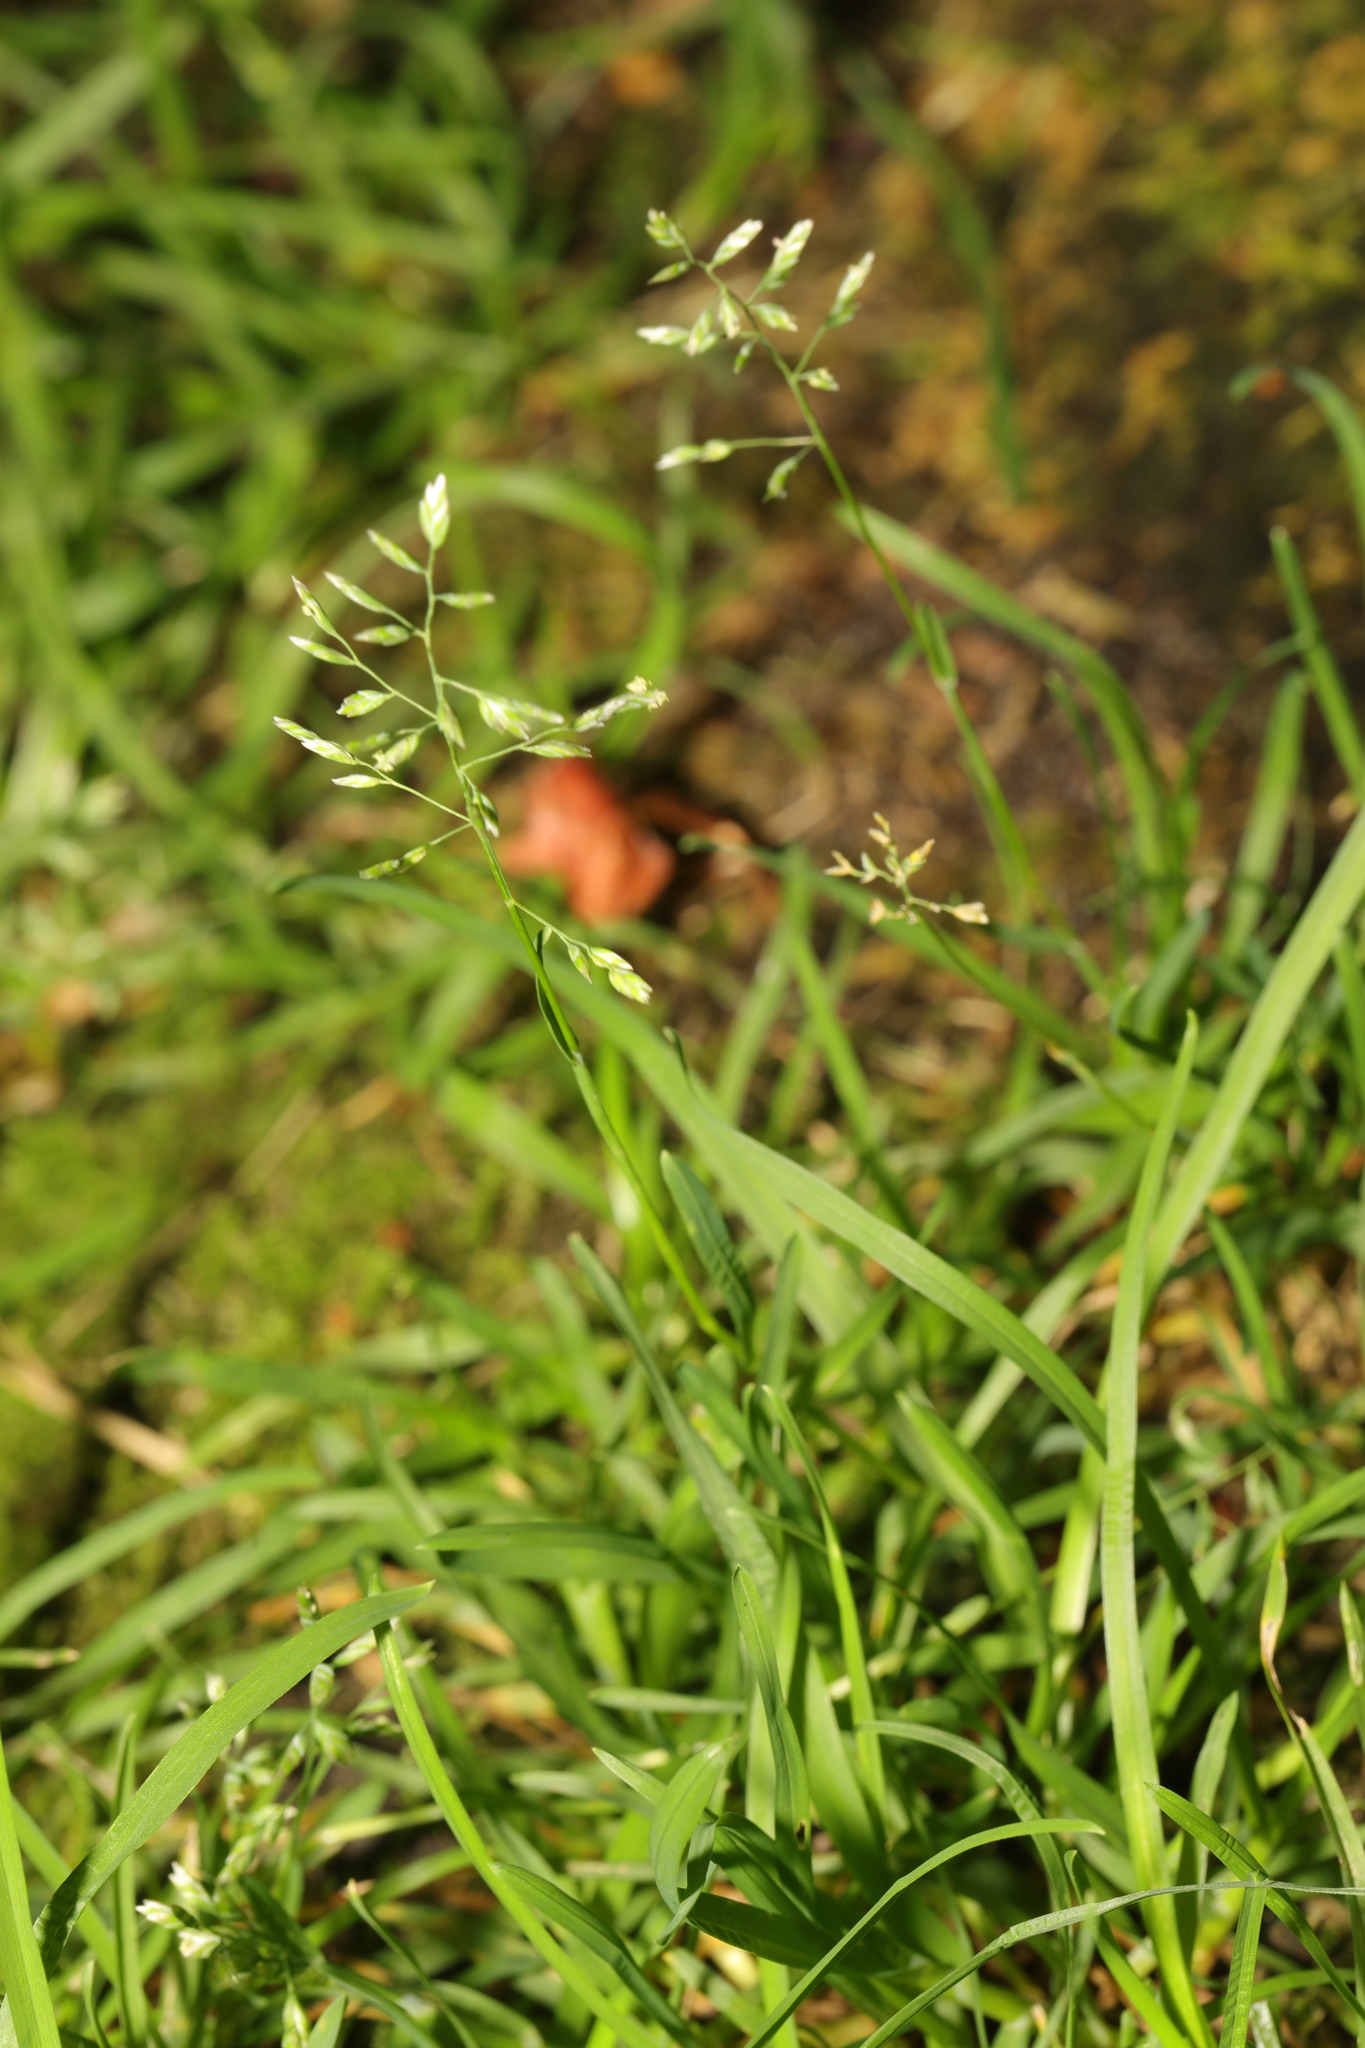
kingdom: Plantae
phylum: Tracheophyta
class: Liliopsida
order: Poales
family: Poaceae
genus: Poa
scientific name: Poa annua
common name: Annual bluegrass
